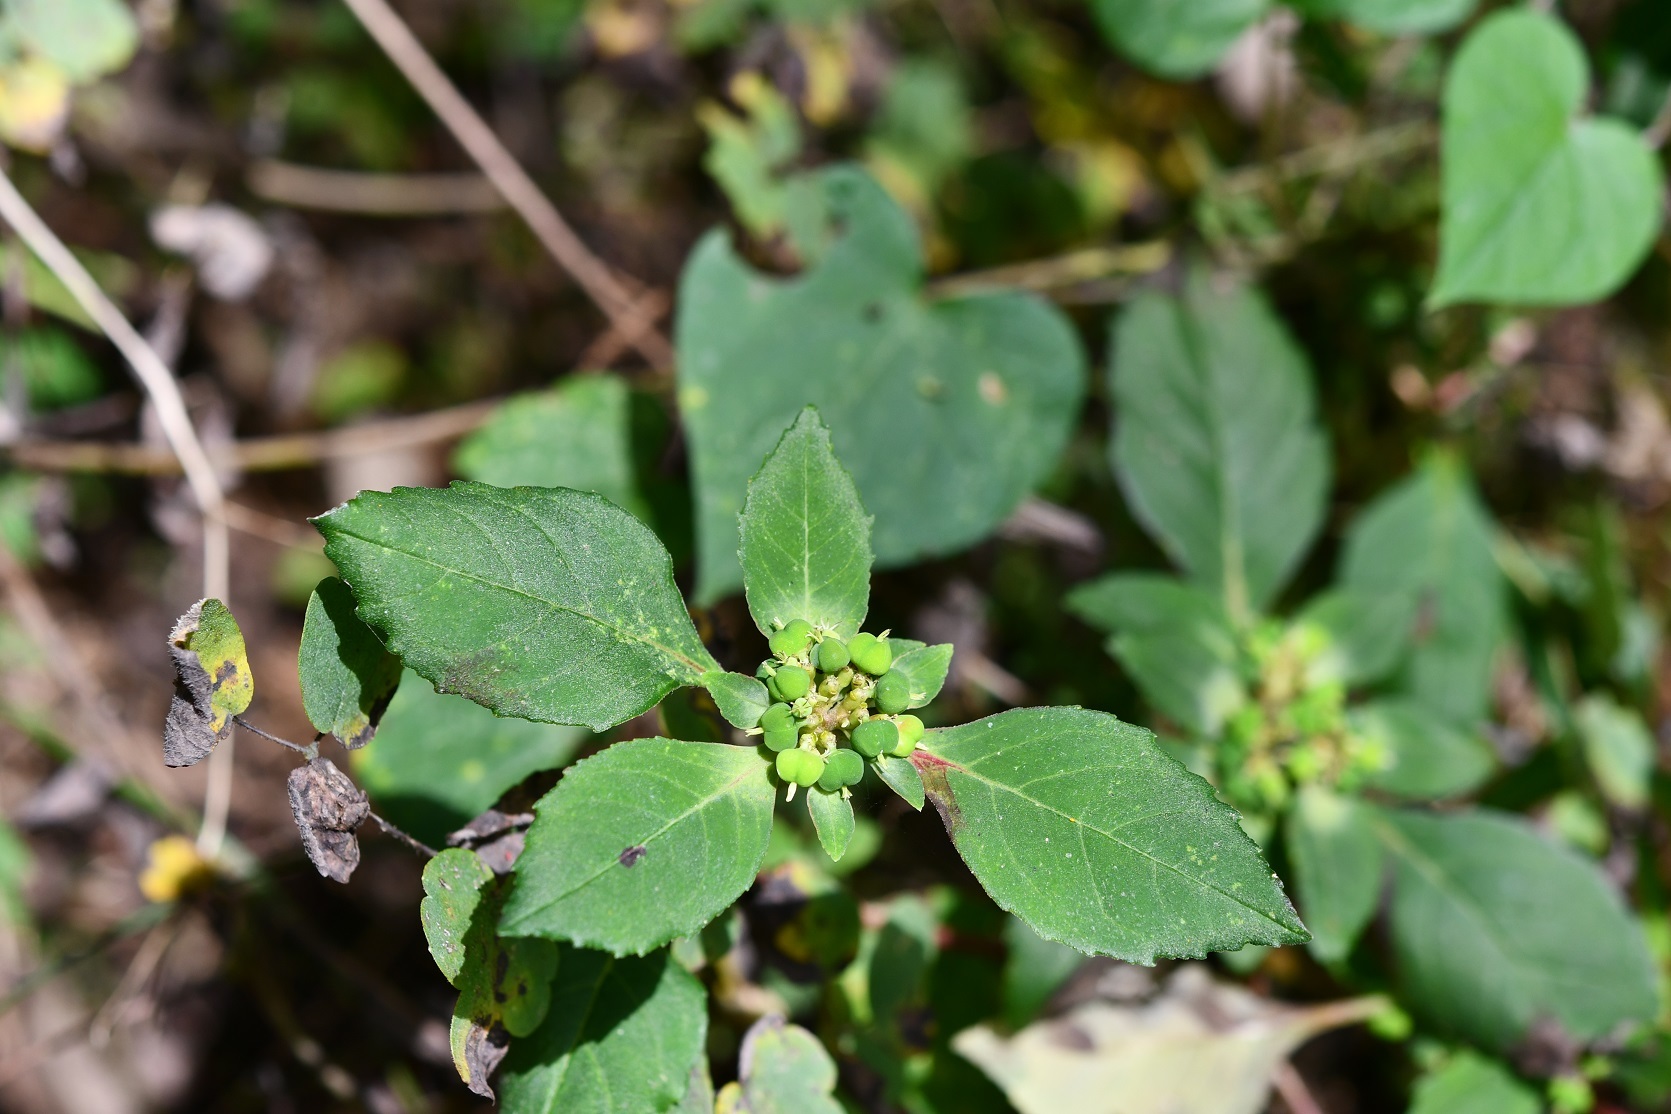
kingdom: Plantae
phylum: Tracheophyta
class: Magnoliopsida
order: Malpighiales
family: Euphorbiaceae
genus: Euphorbia
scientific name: Euphorbia dentata
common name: Dentate spurge
